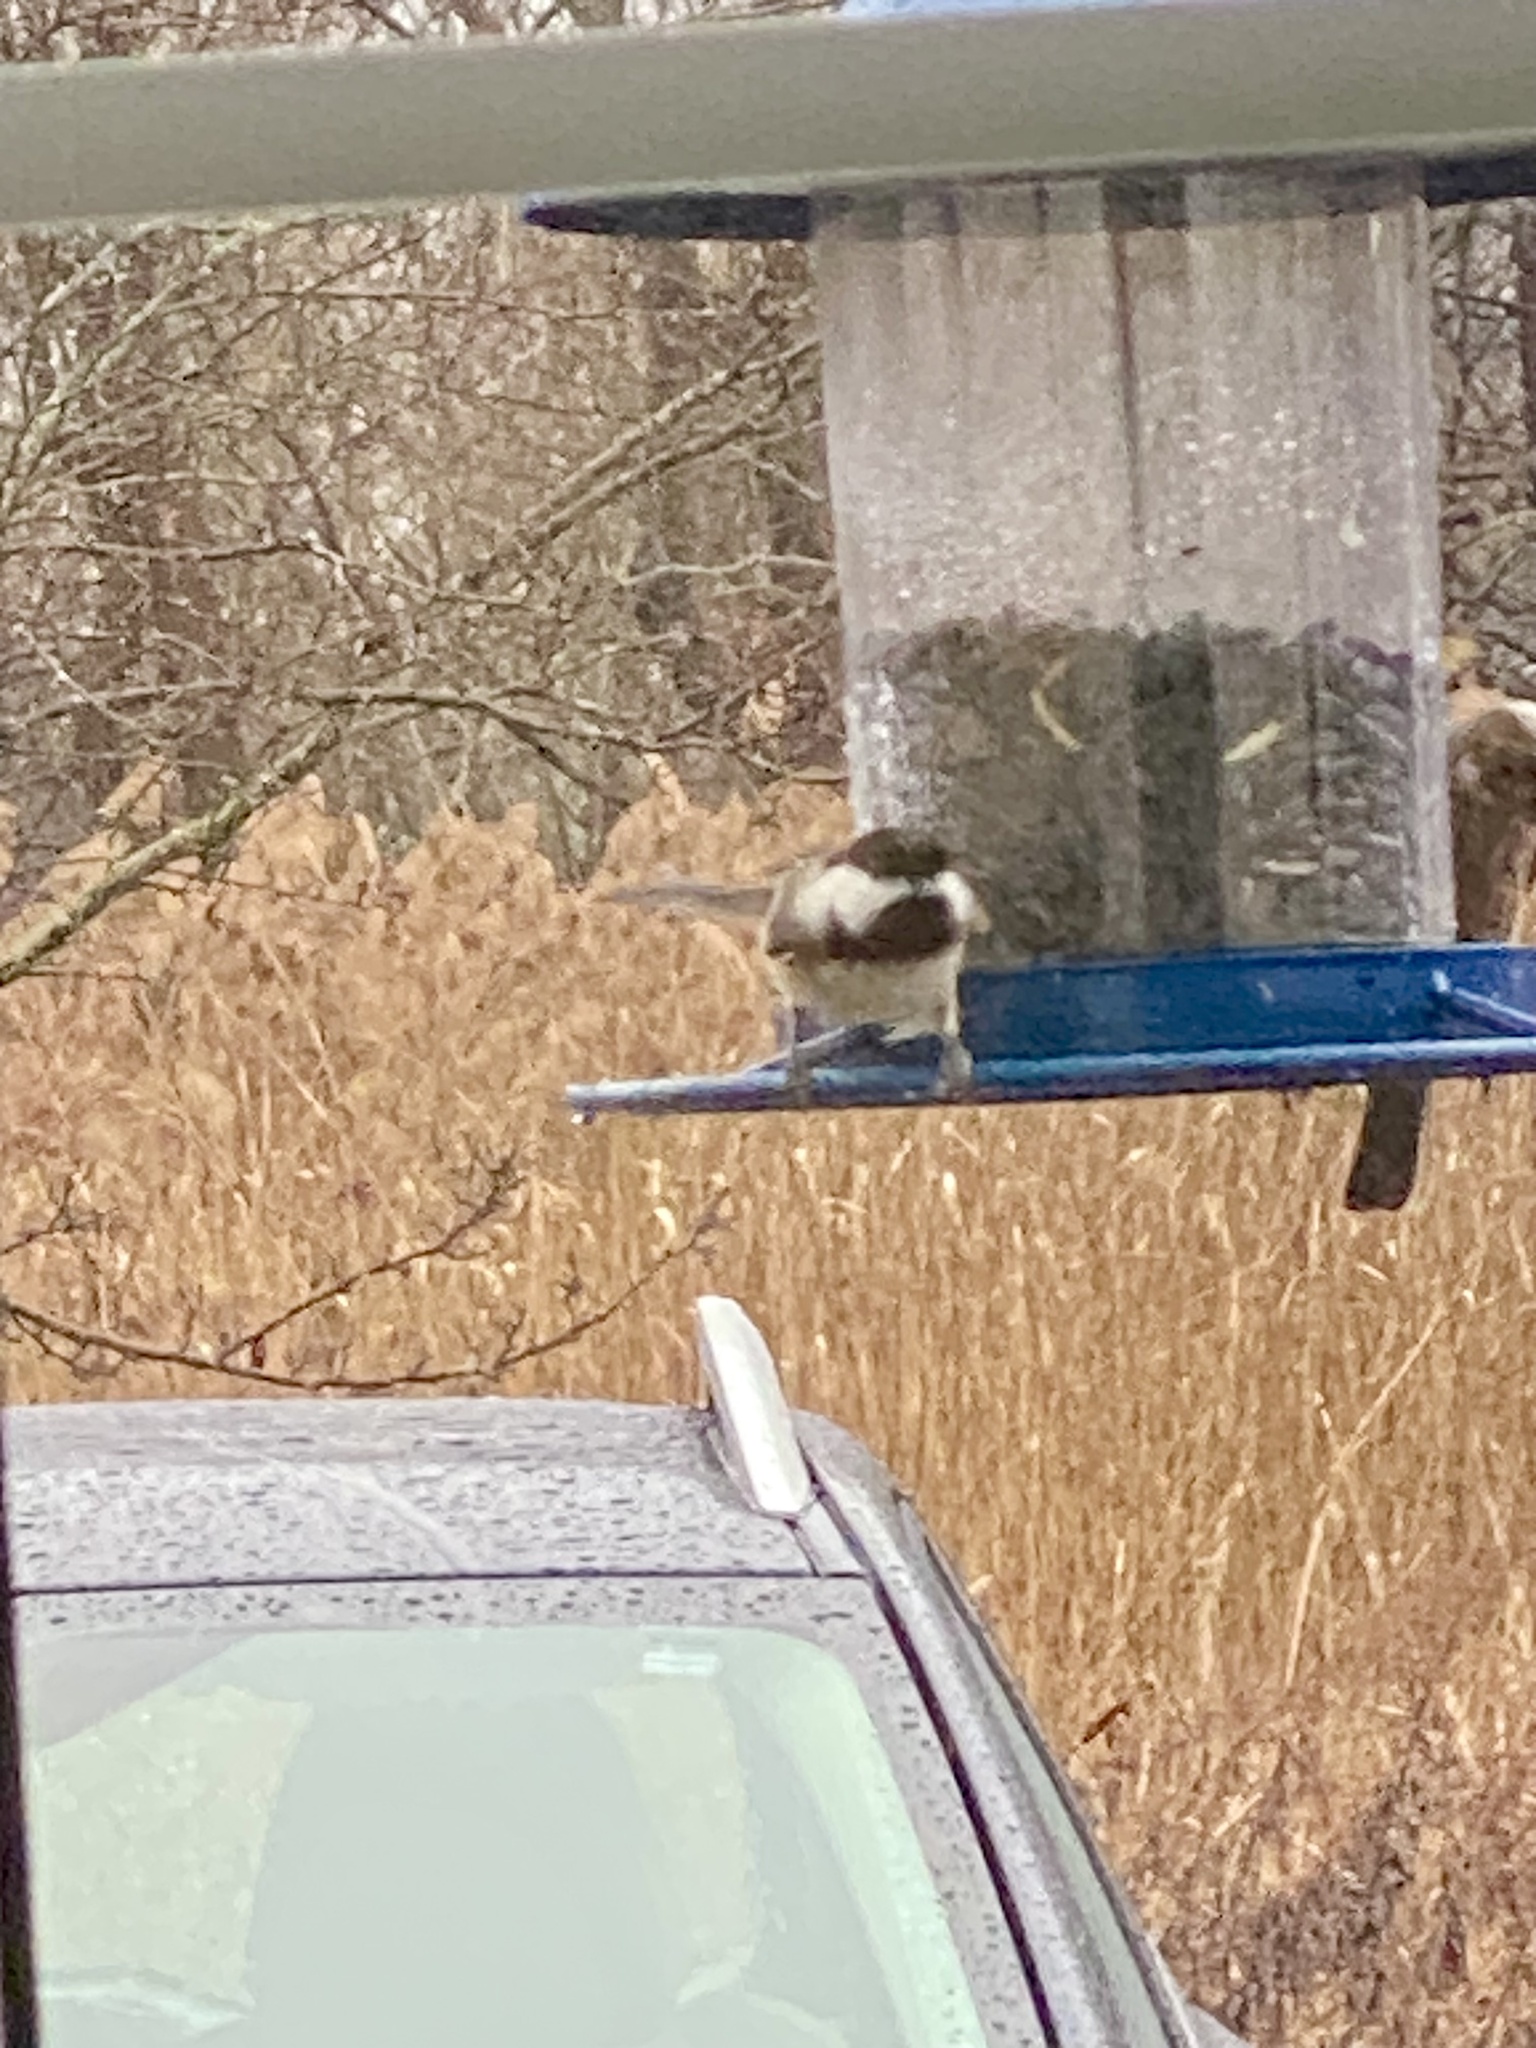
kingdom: Animalia
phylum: Chordata
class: Aves
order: Passeriformes
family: Paridae
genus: Poecile
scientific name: Poecile atricapillus
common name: Black-capped chickadee
